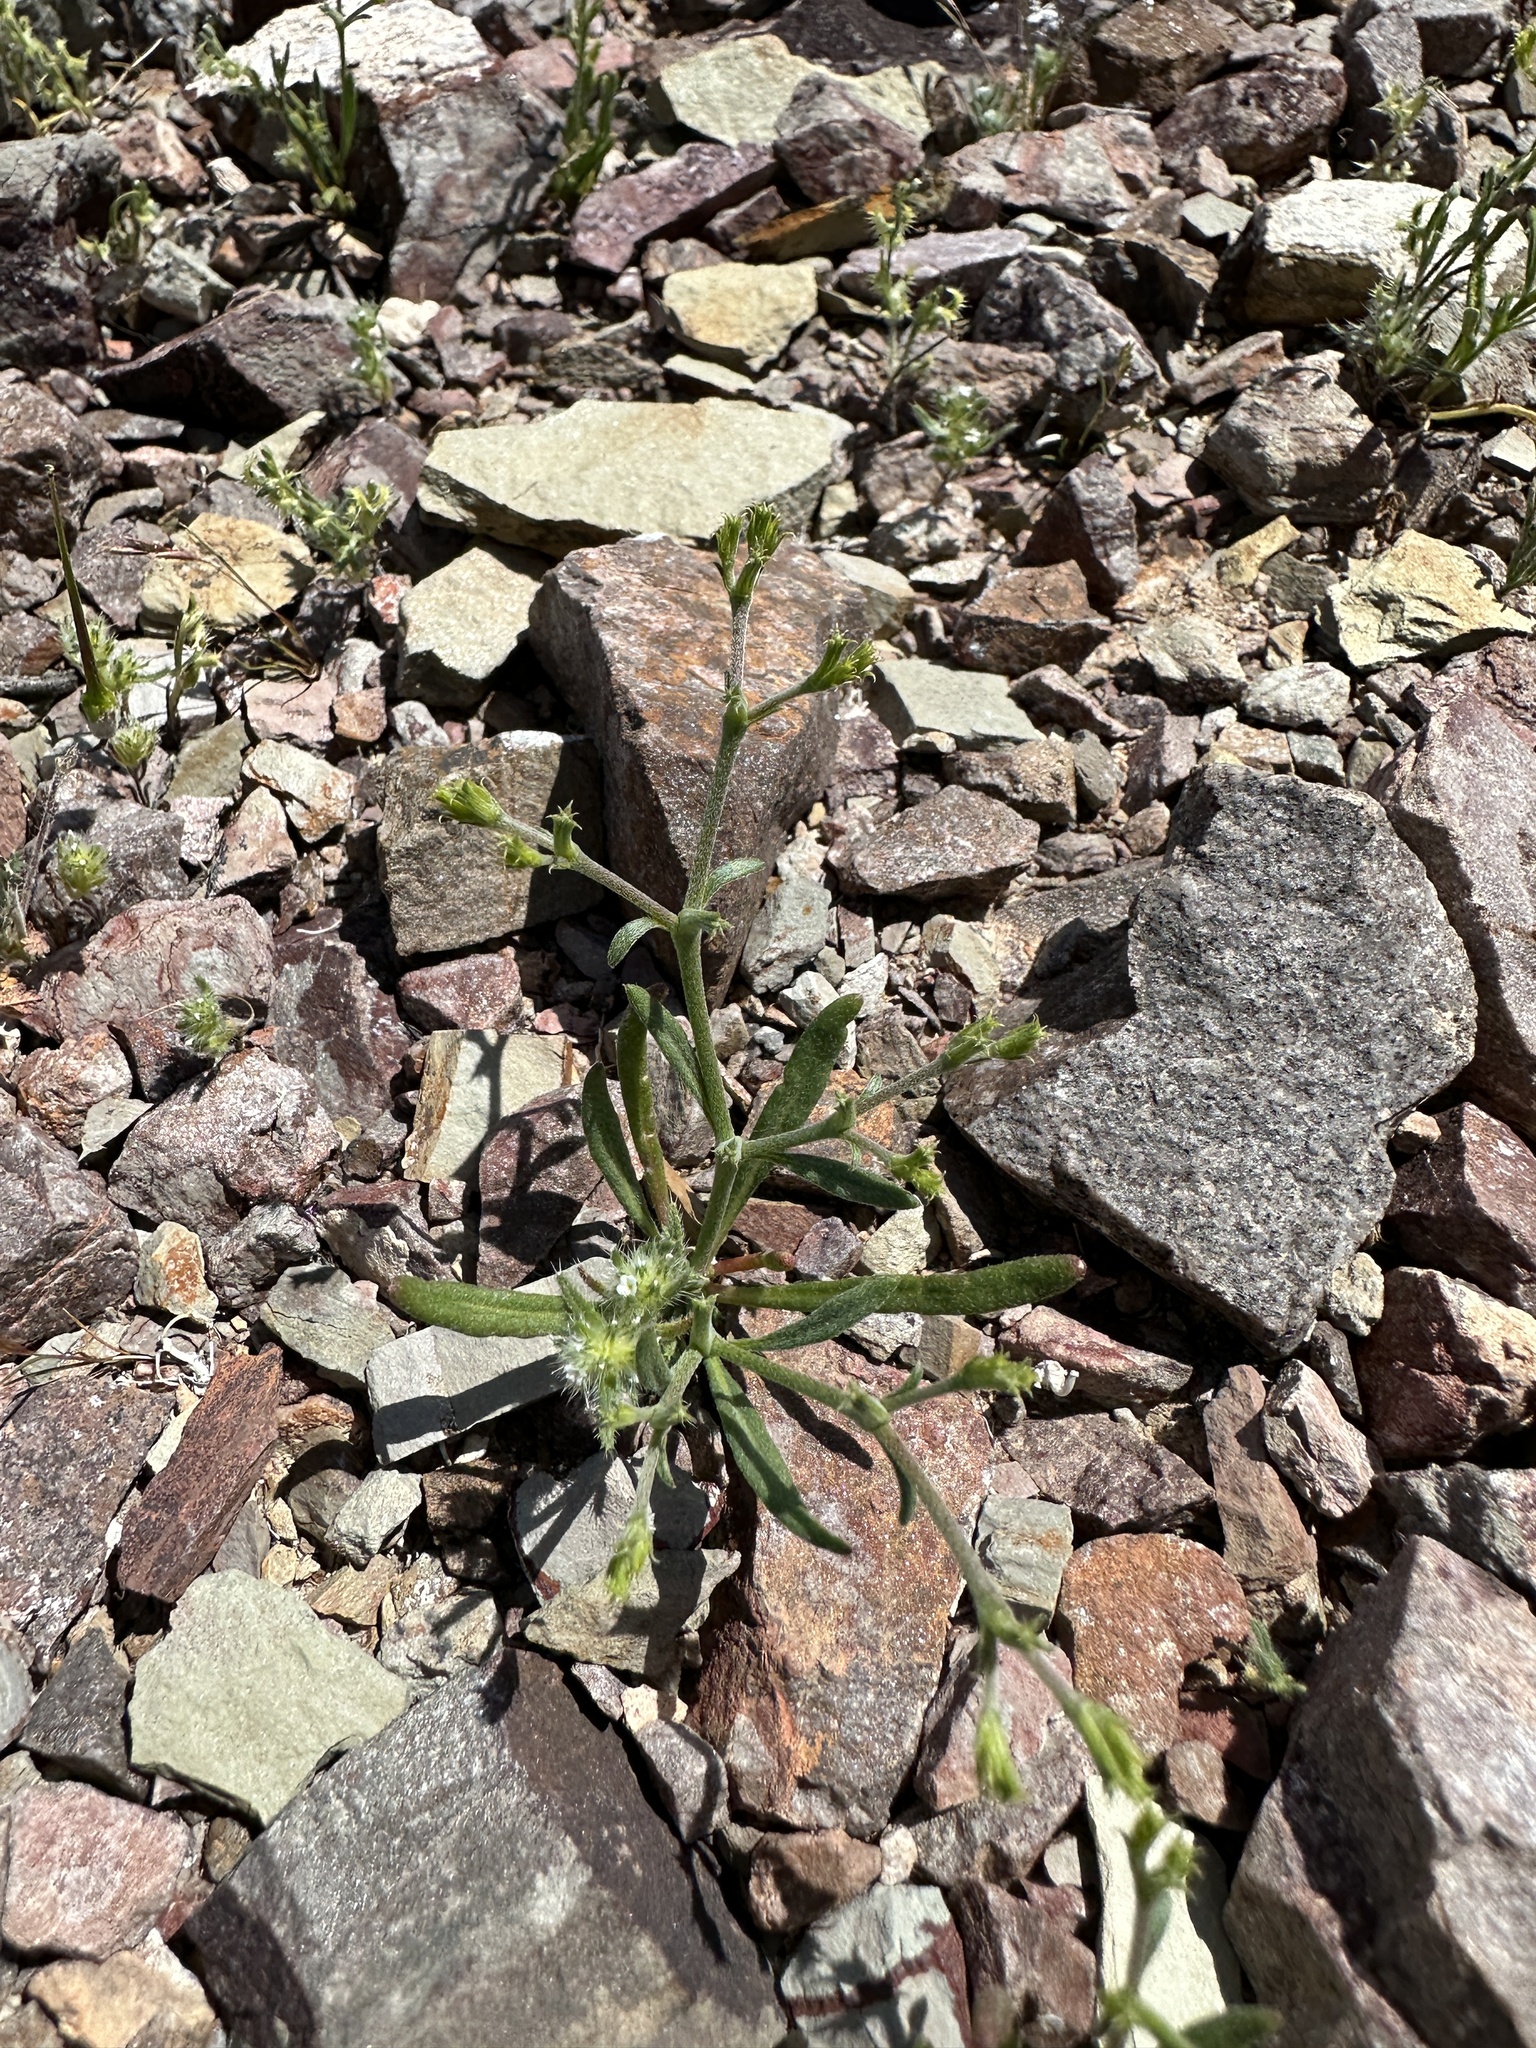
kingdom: Plantae
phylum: Tracheophyta
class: Magnoliopsida
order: Caryophyllales
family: Polygonaceae
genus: Chorizanthe
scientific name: Chorizanthe brevicornu
